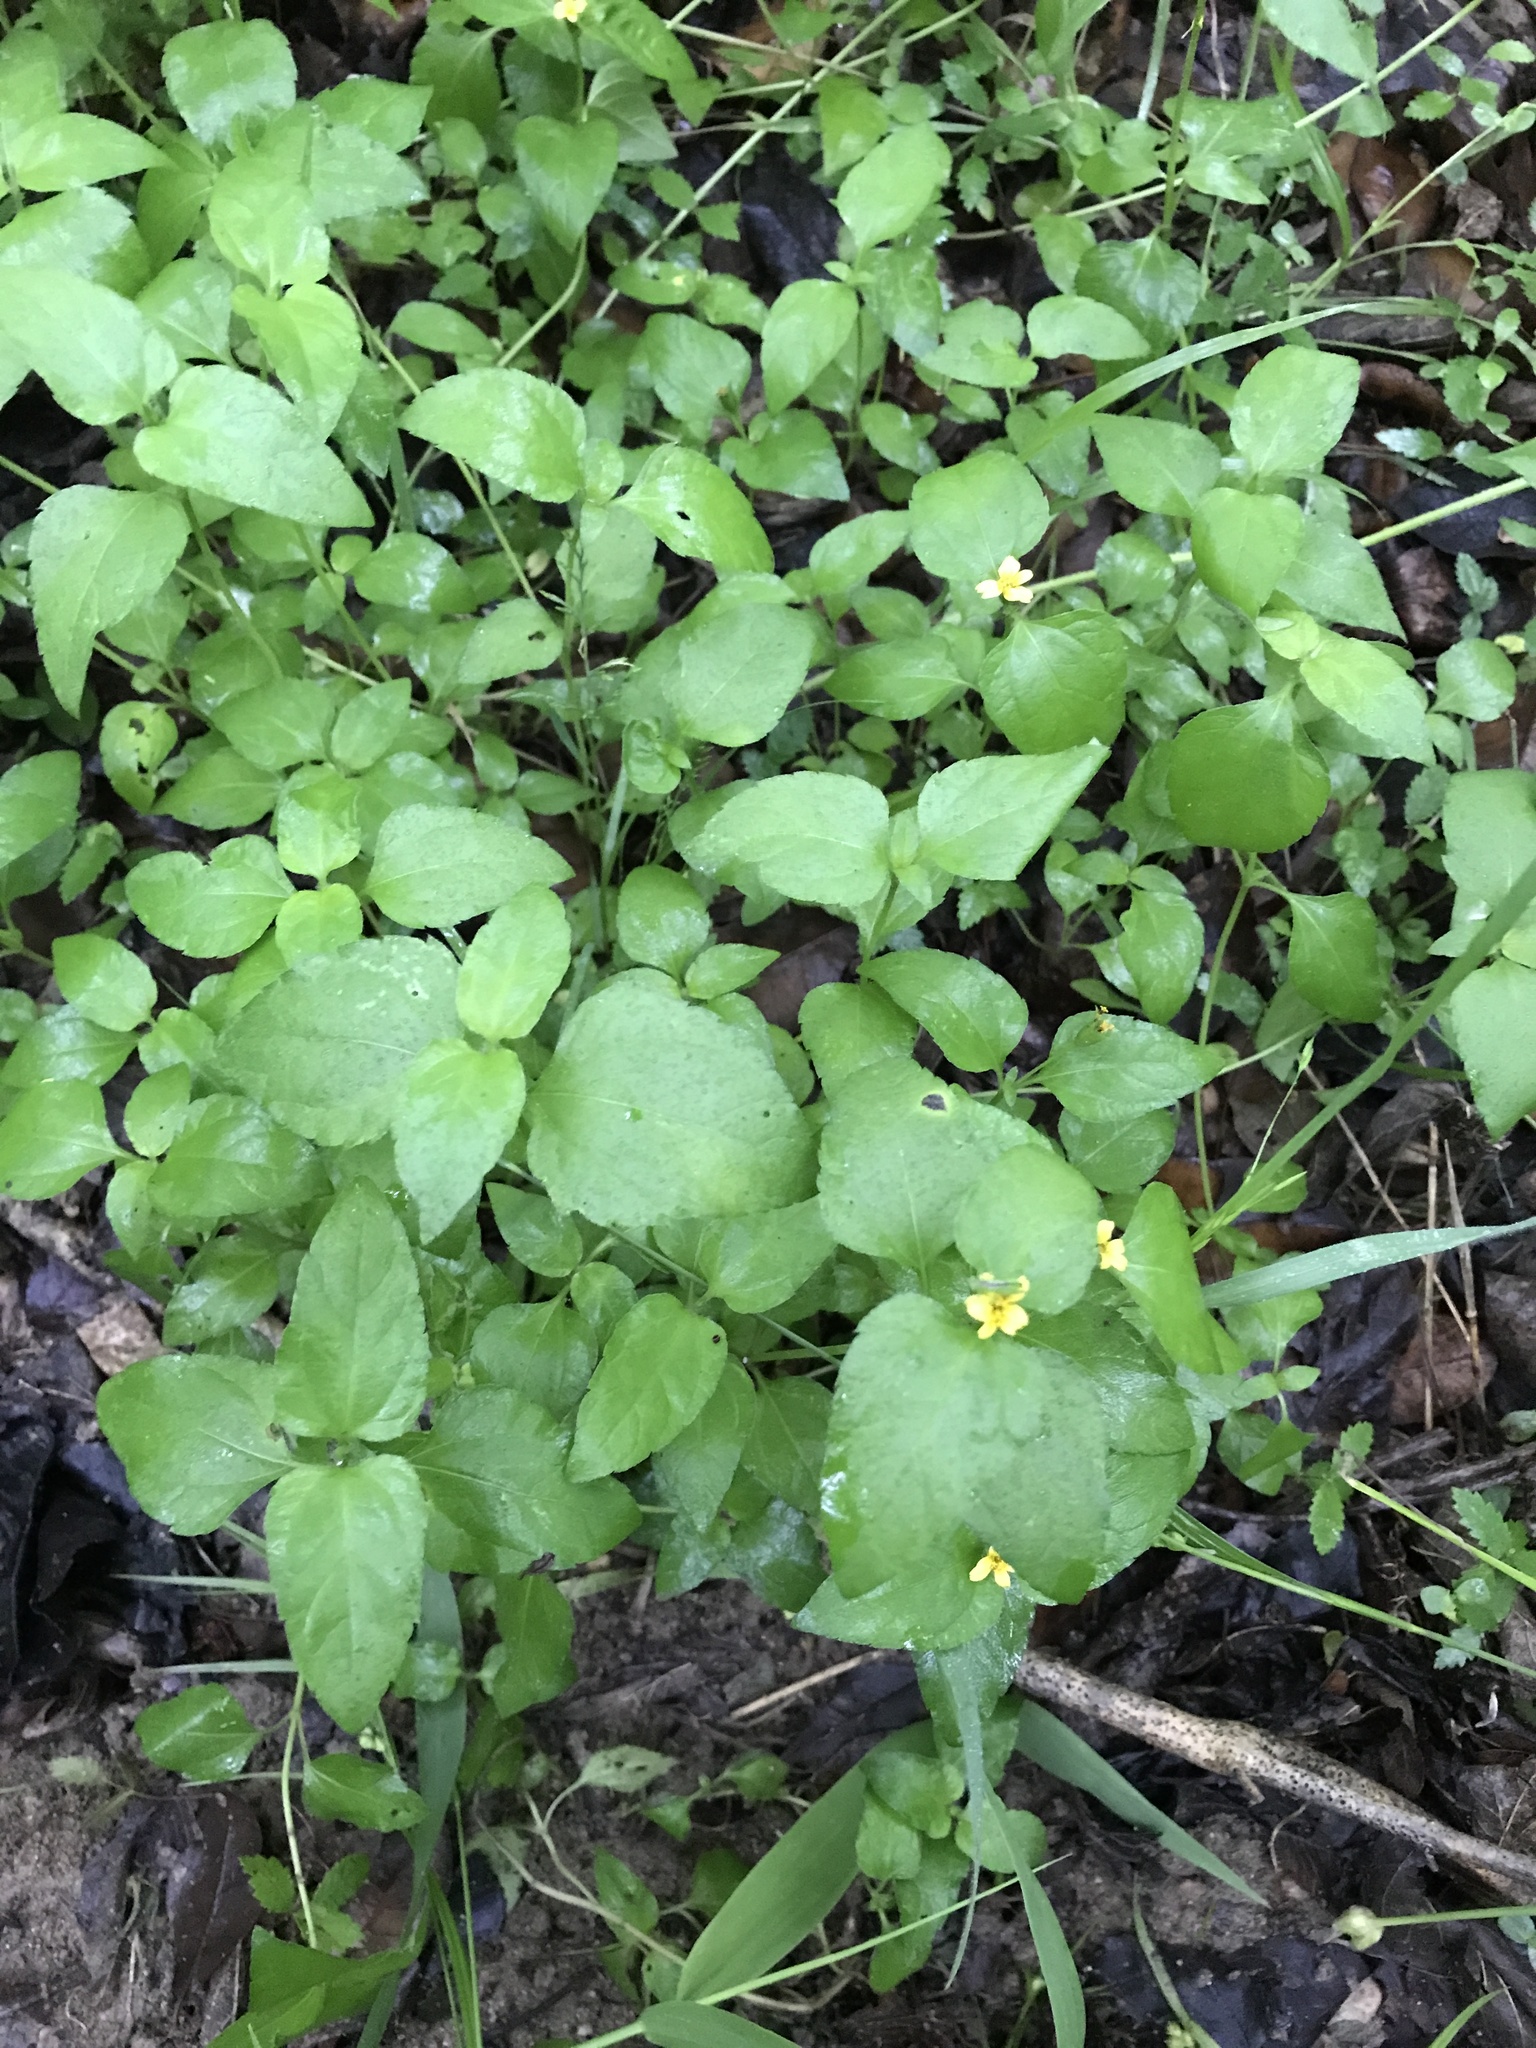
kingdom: Plantae
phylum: Tracheophyta
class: Magnoliopsida
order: Asterales
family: Asteraceae
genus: Calyptocarpus
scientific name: Calyptocarpus vialis
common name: Straggler daisy
